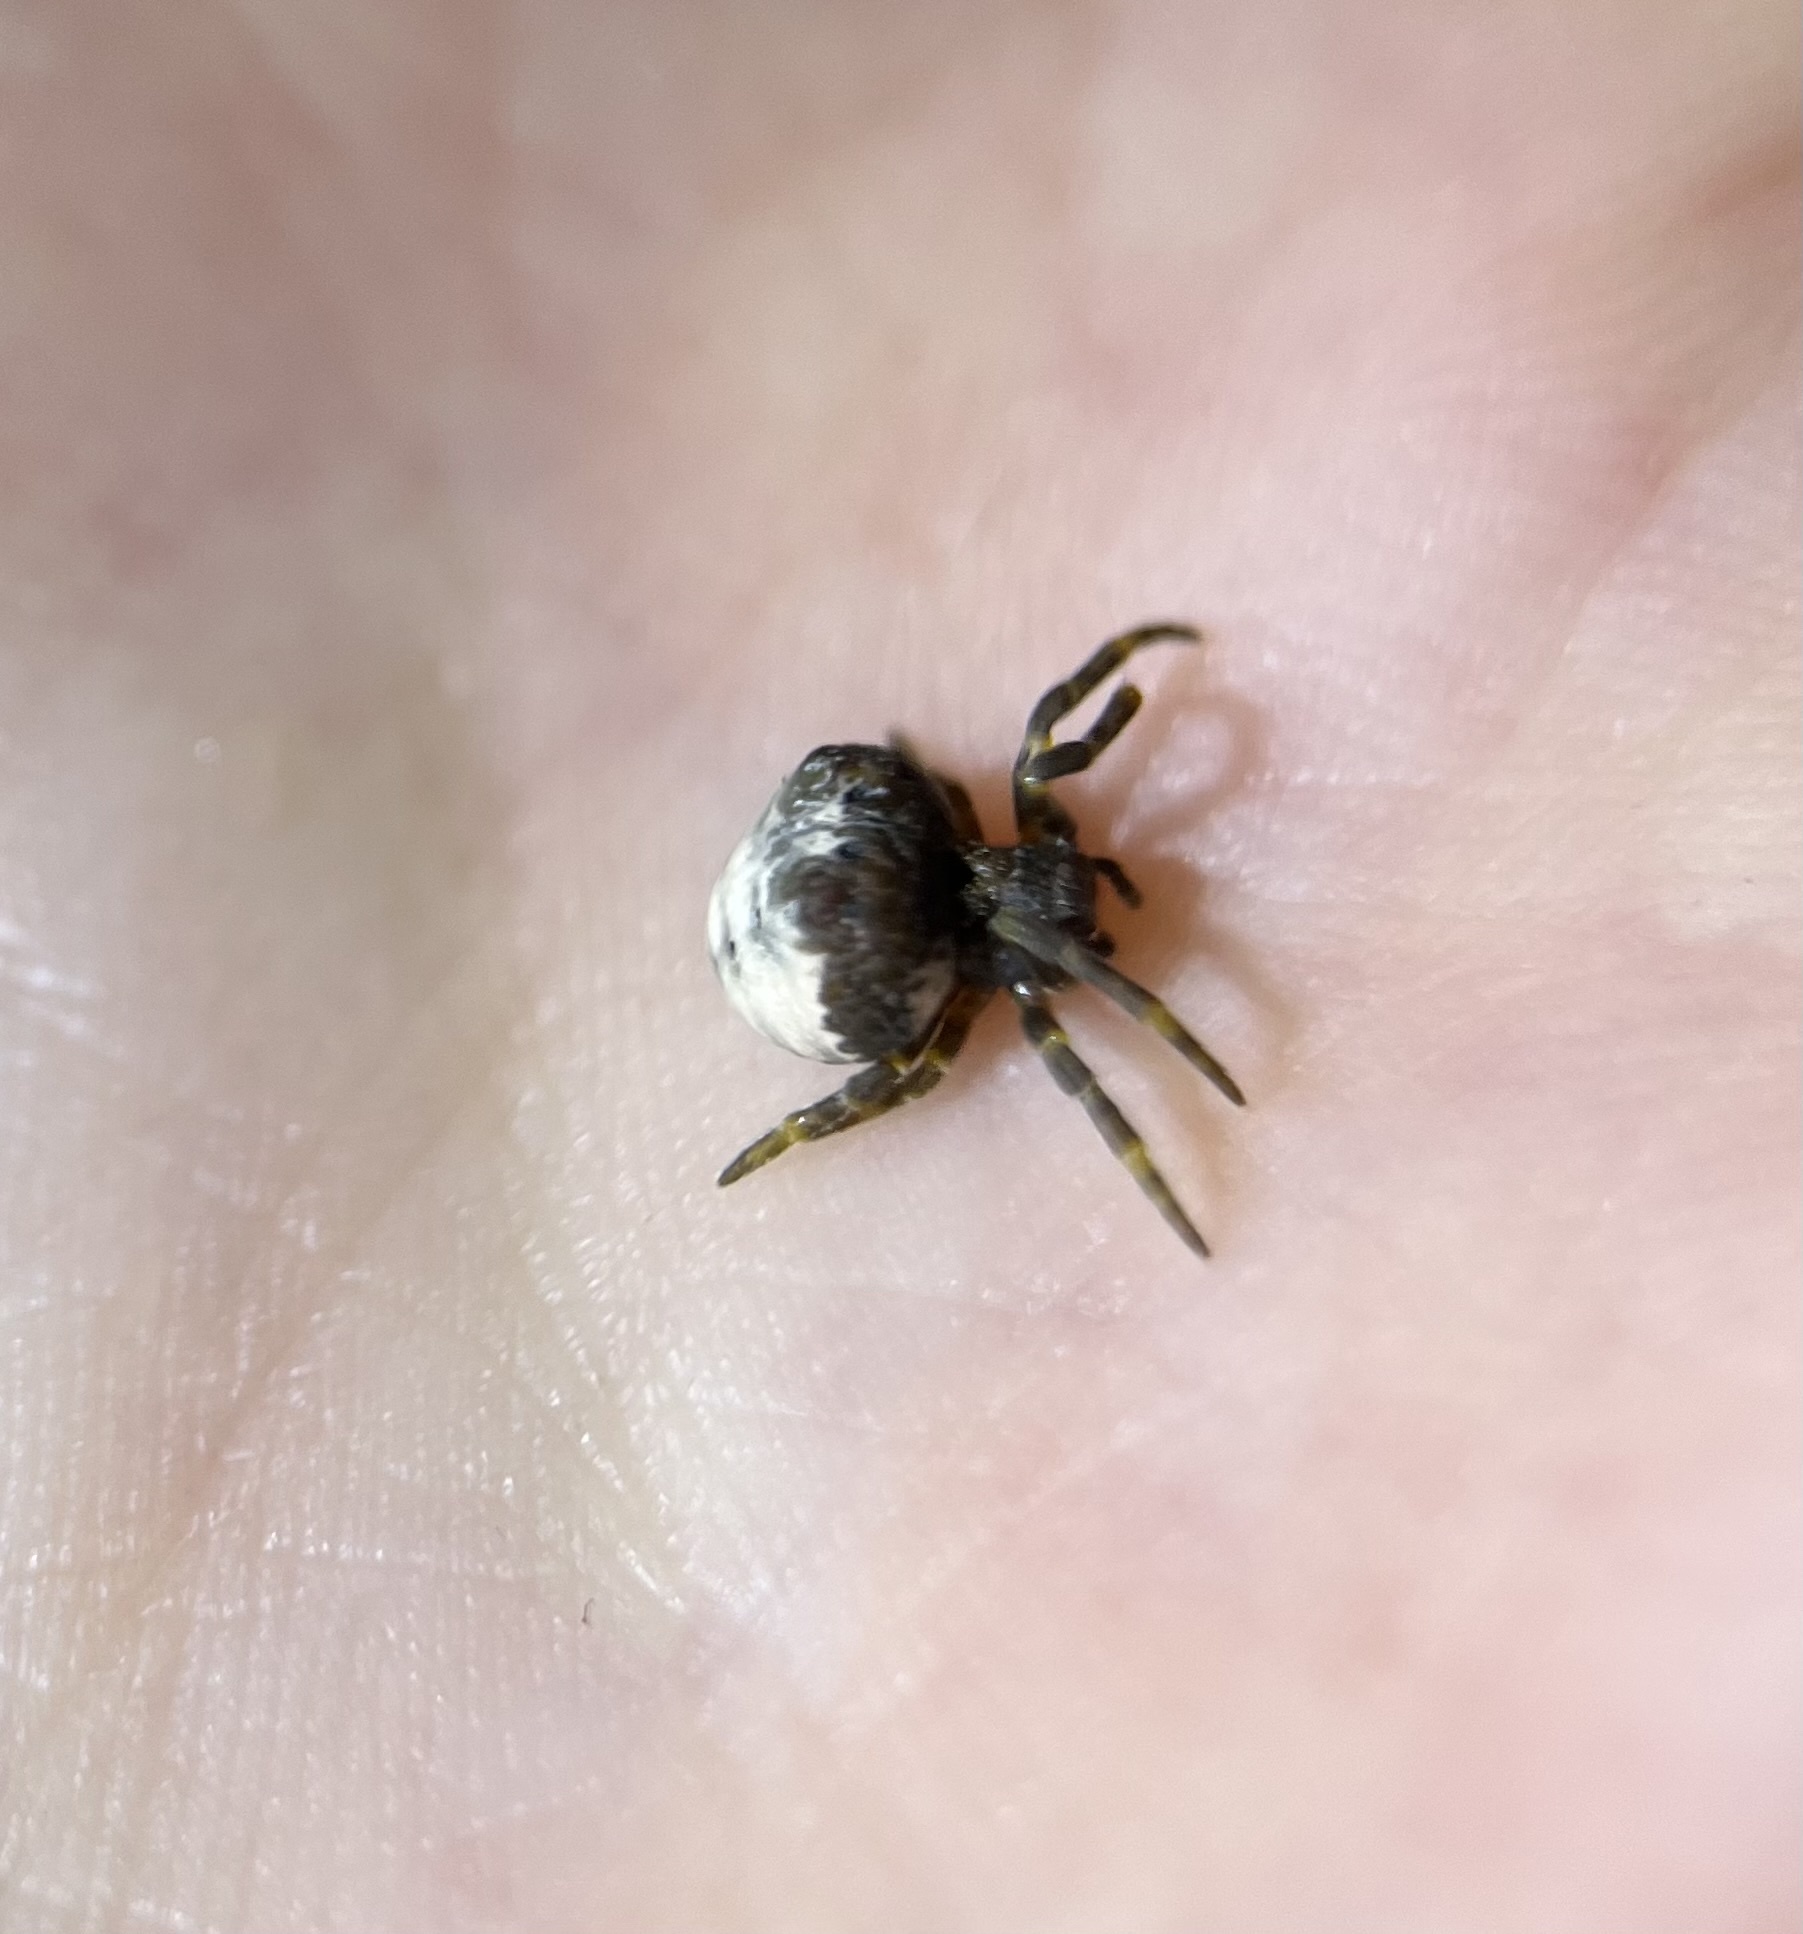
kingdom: Animalia
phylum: Arthropoda
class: Arachnida
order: Araneae
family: Araneidae
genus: Mastophora
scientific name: Mastophora cornigera
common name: Orb weavers
